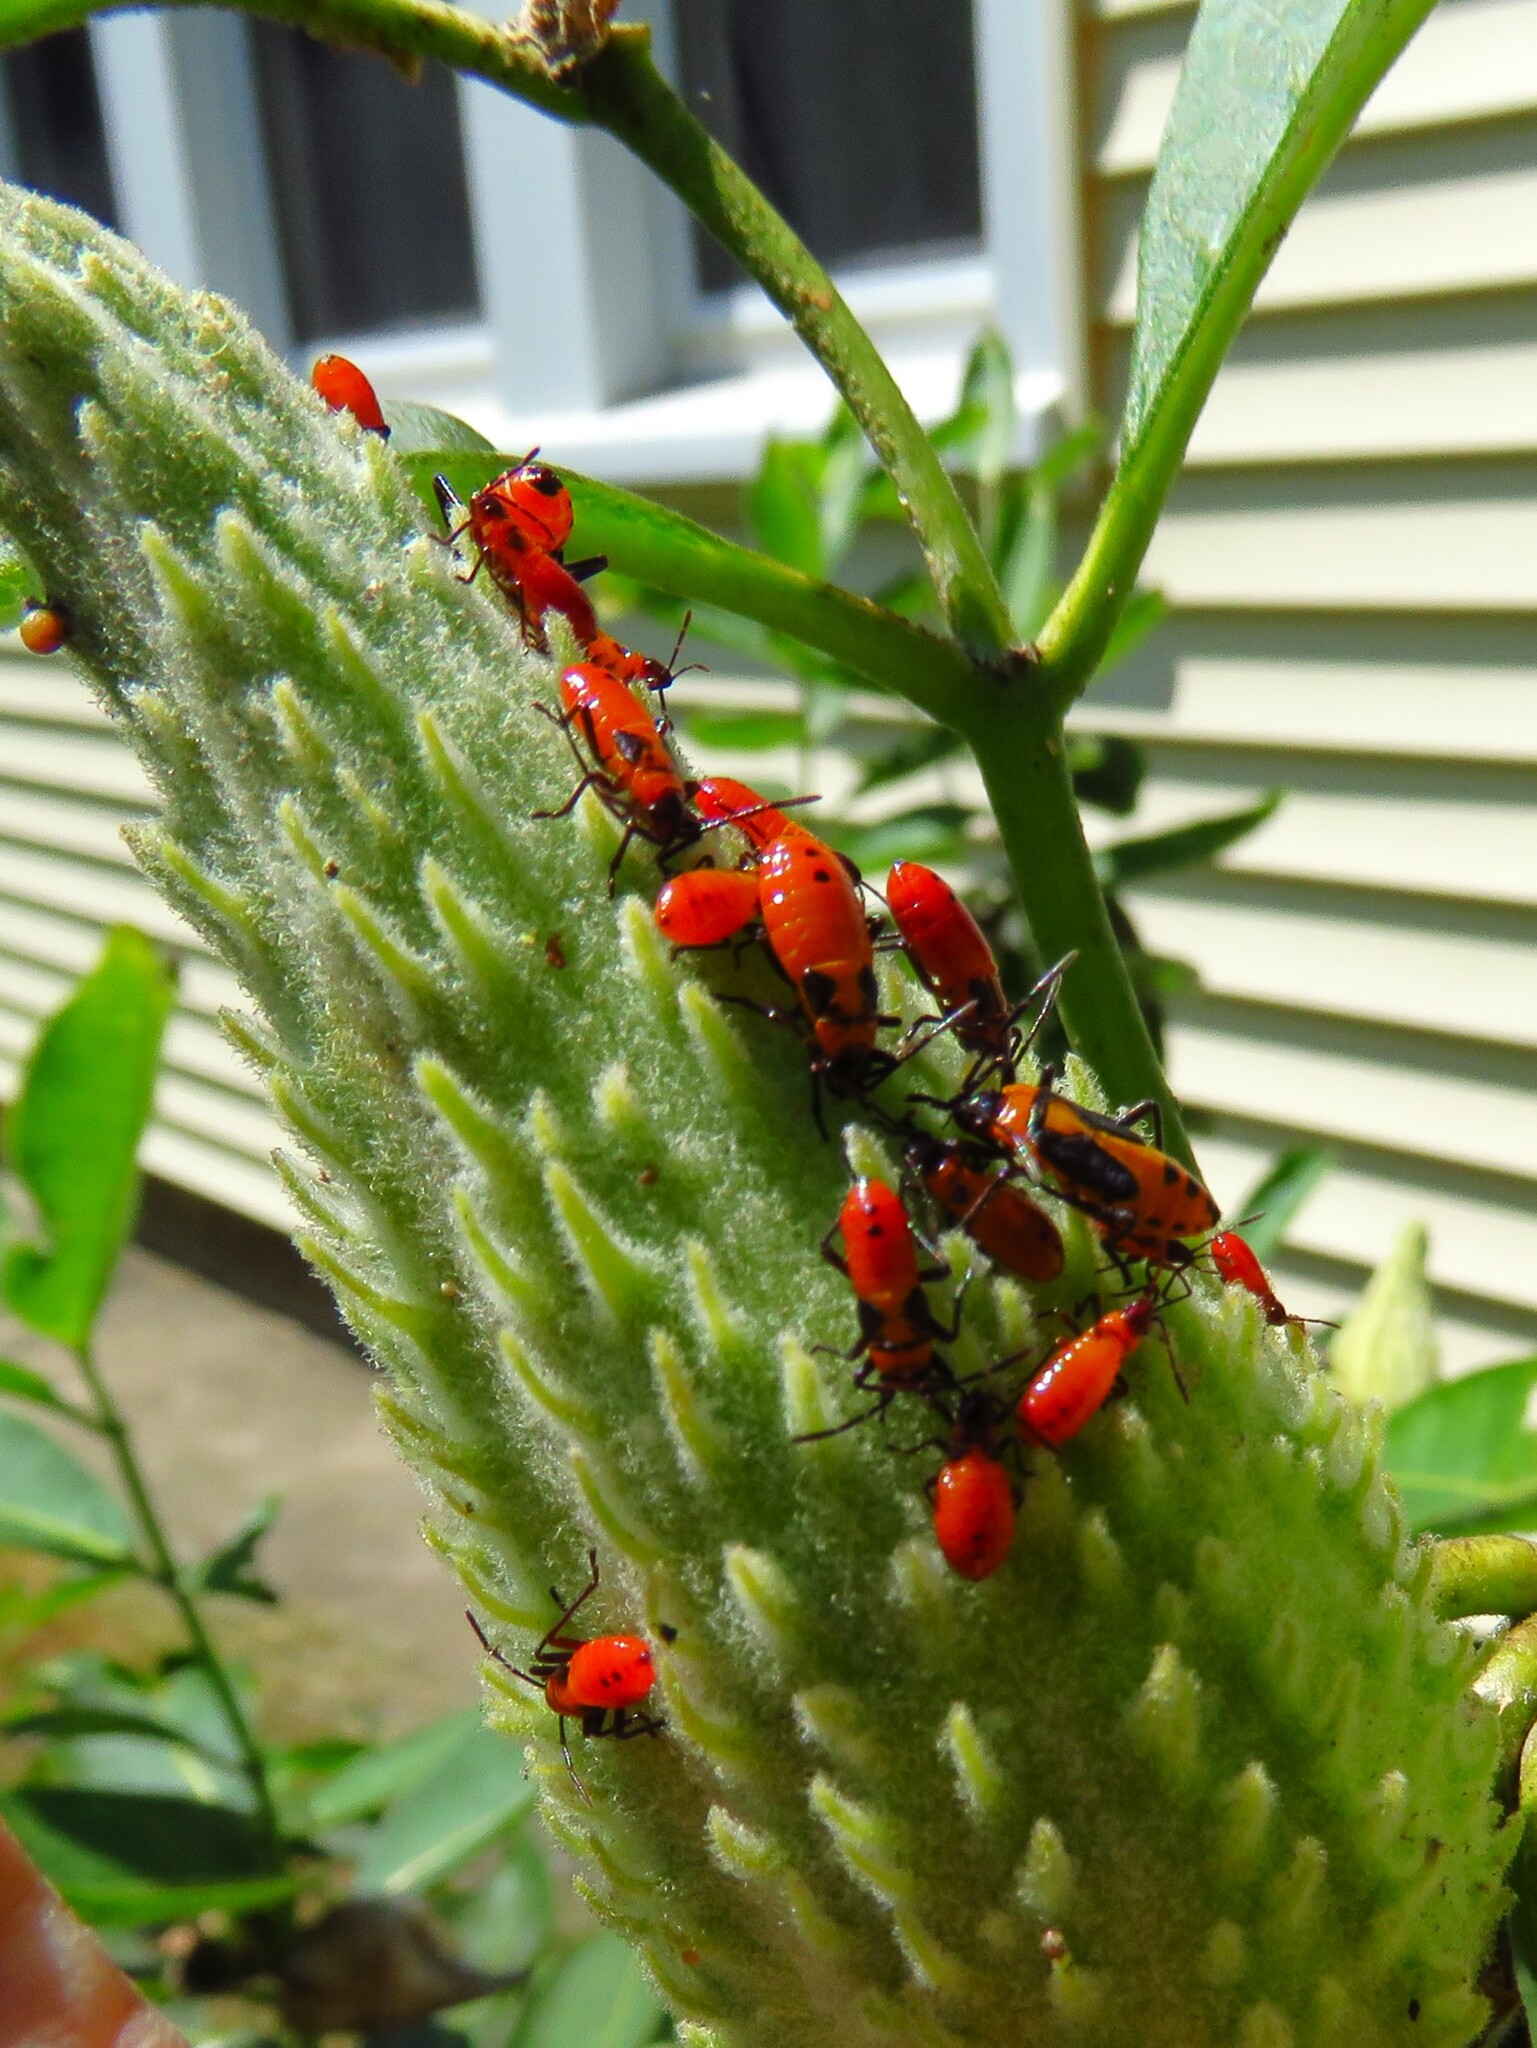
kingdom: Animalia
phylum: Arthropoda
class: Insecta
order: Hemiptera
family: Lygaeidae
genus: Oncopeltus
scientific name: Oncopeltus fasciatus
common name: Large milkweed bug
